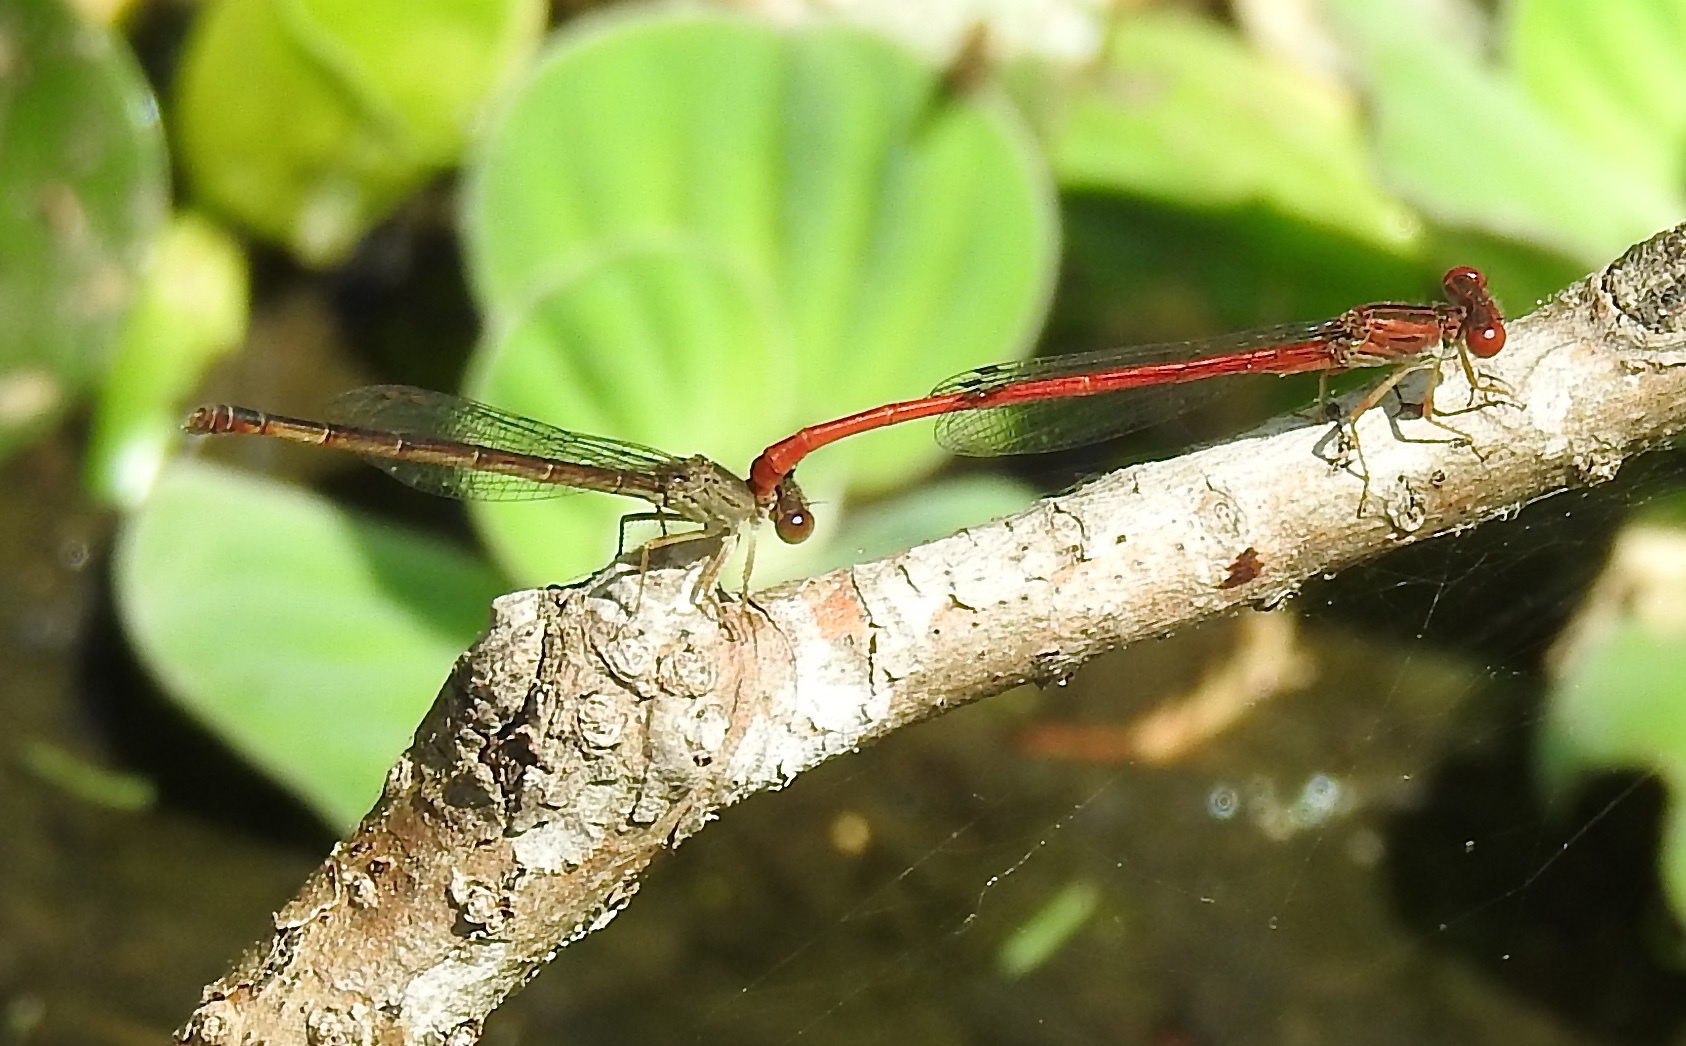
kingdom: Animalia
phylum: Arthropoda
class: Insecta
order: Odonata
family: Coenagrionidae
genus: Telebasis
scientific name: Telebasis byersi
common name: Duckweed firetail
